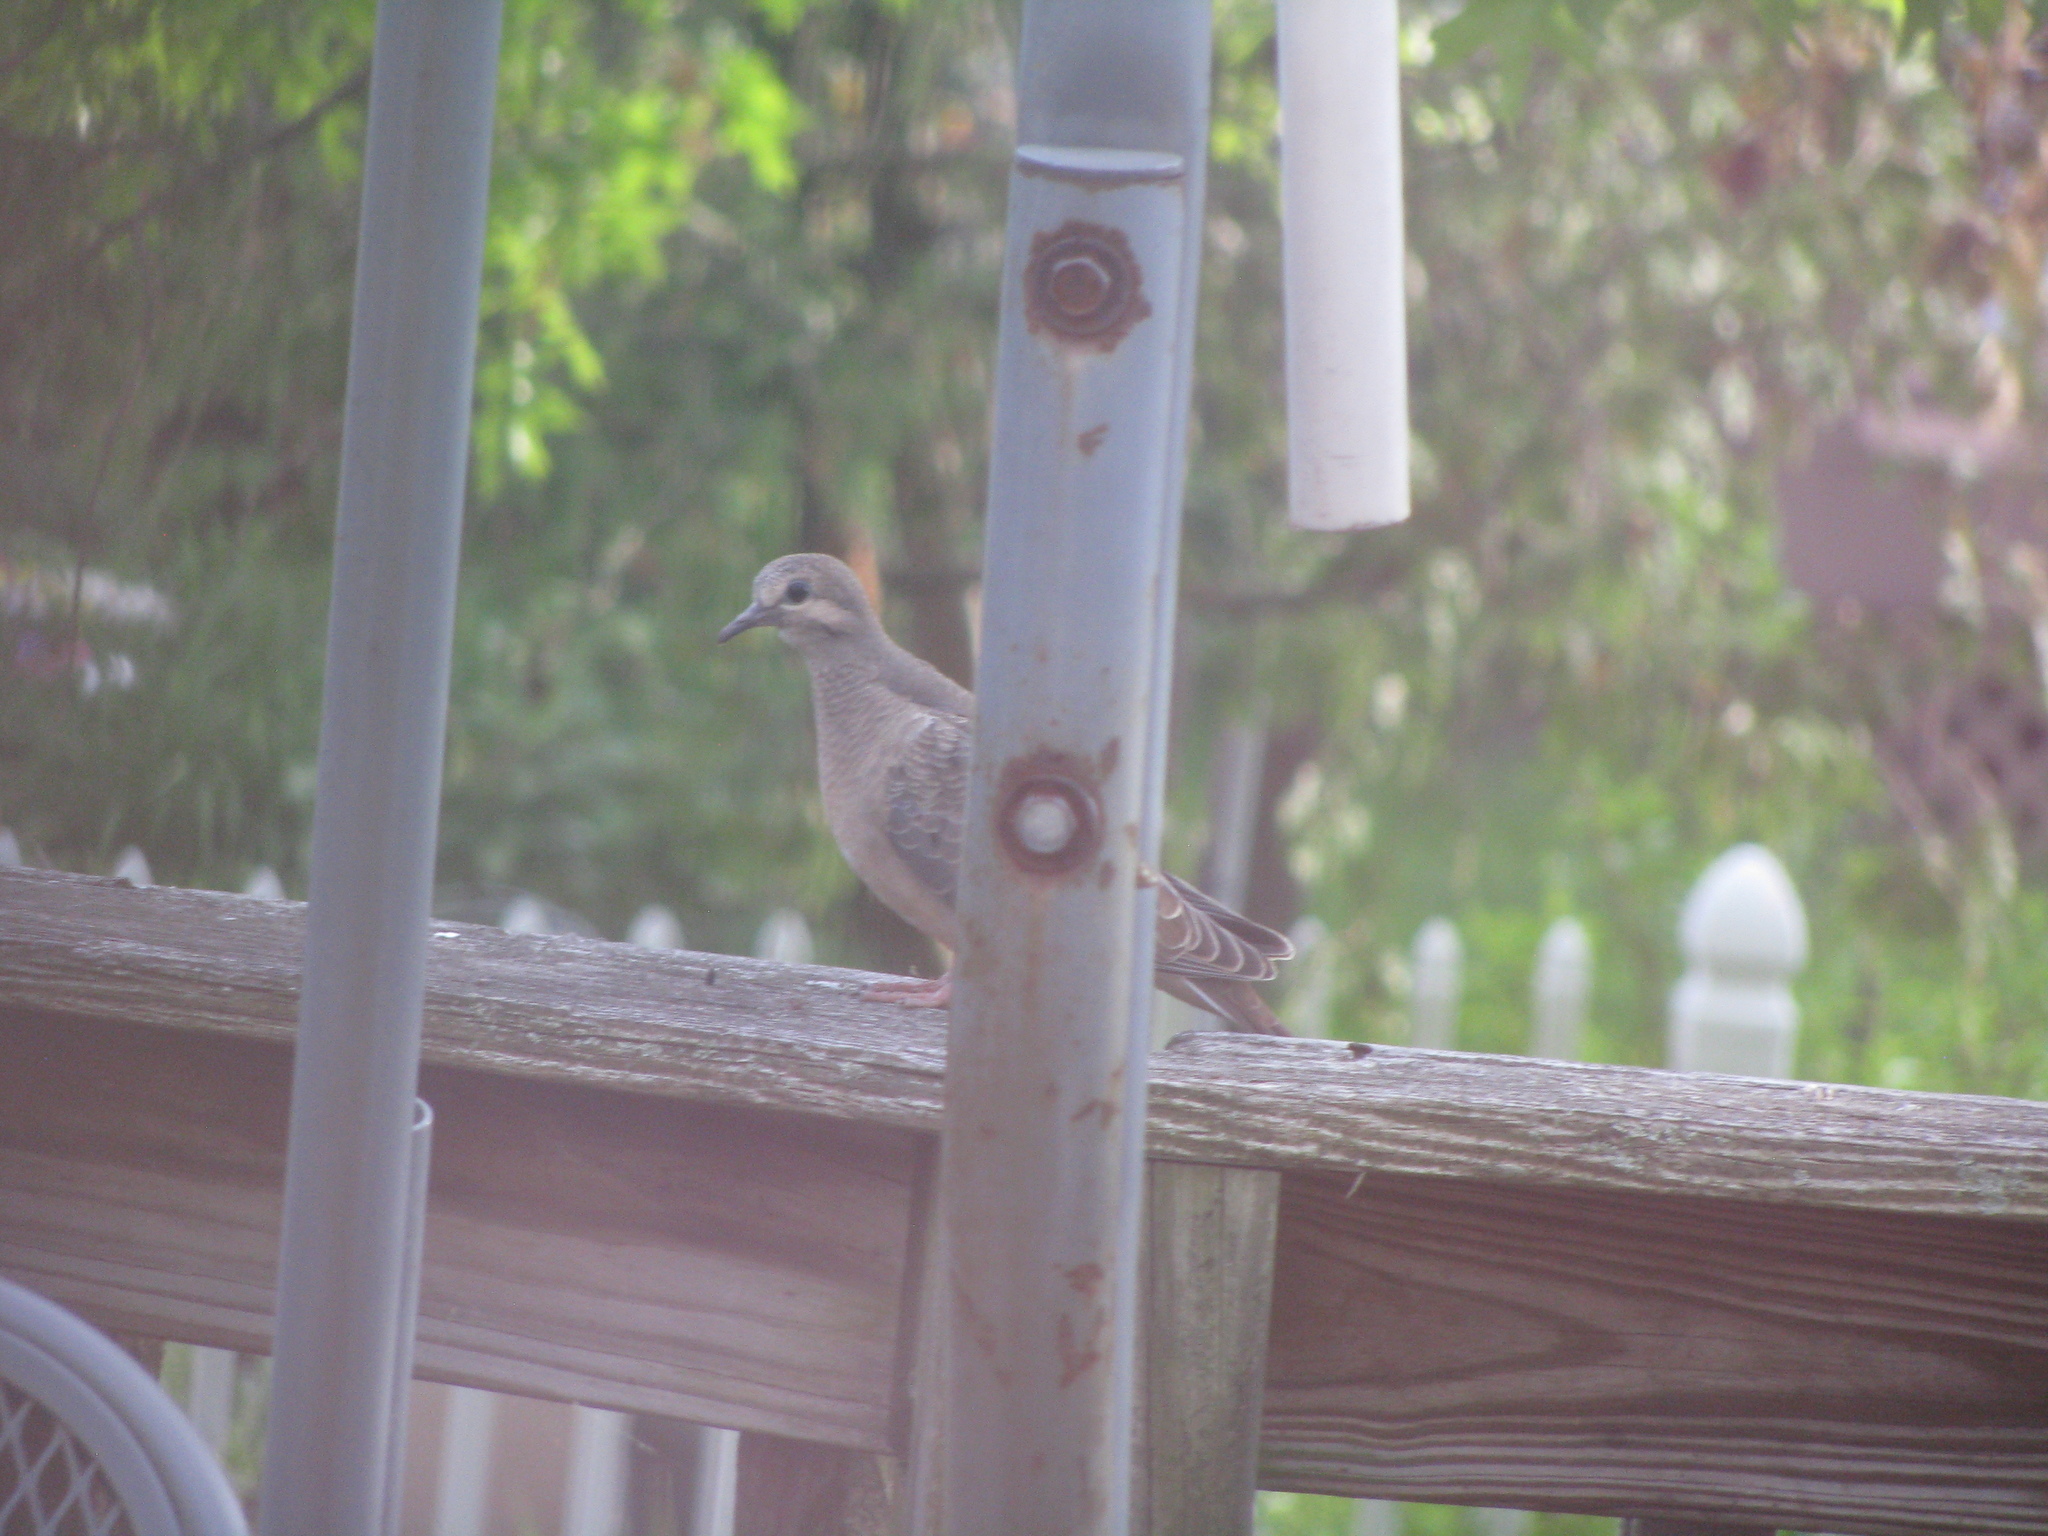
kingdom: Animalia
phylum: Chordata
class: Aves
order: Columbiformes
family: Columbidae
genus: Zenaida
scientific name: Zenaida macroura
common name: Mourning dove
